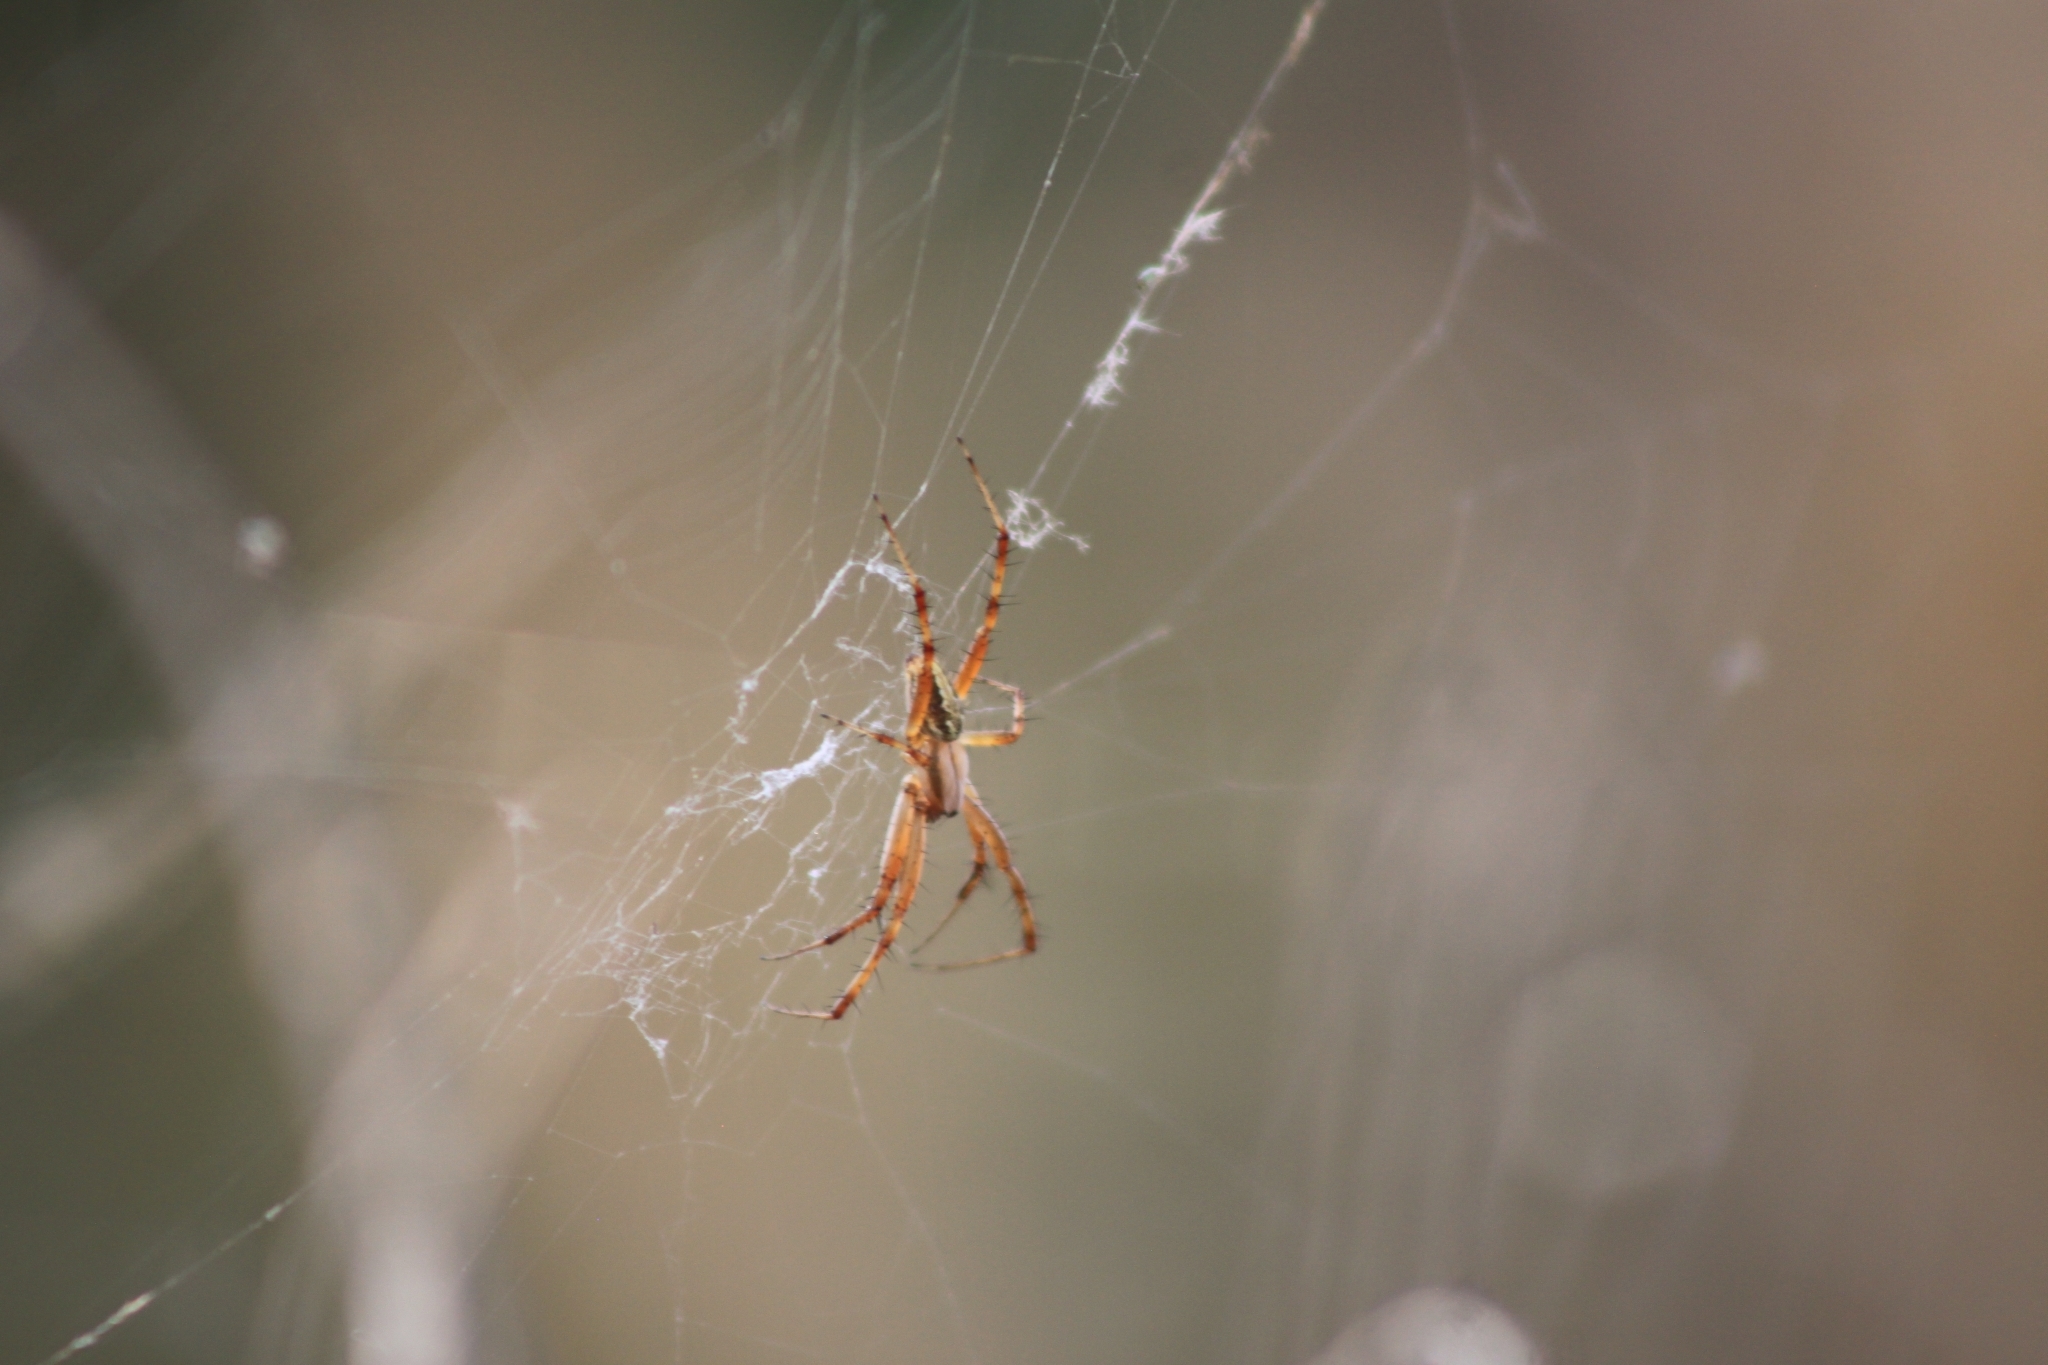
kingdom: Animalia
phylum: Arthropoda
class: Arachnida
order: Araneae
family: Araneidae
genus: Neoscona
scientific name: Neoscona oaxacensis
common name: Orb weavers
